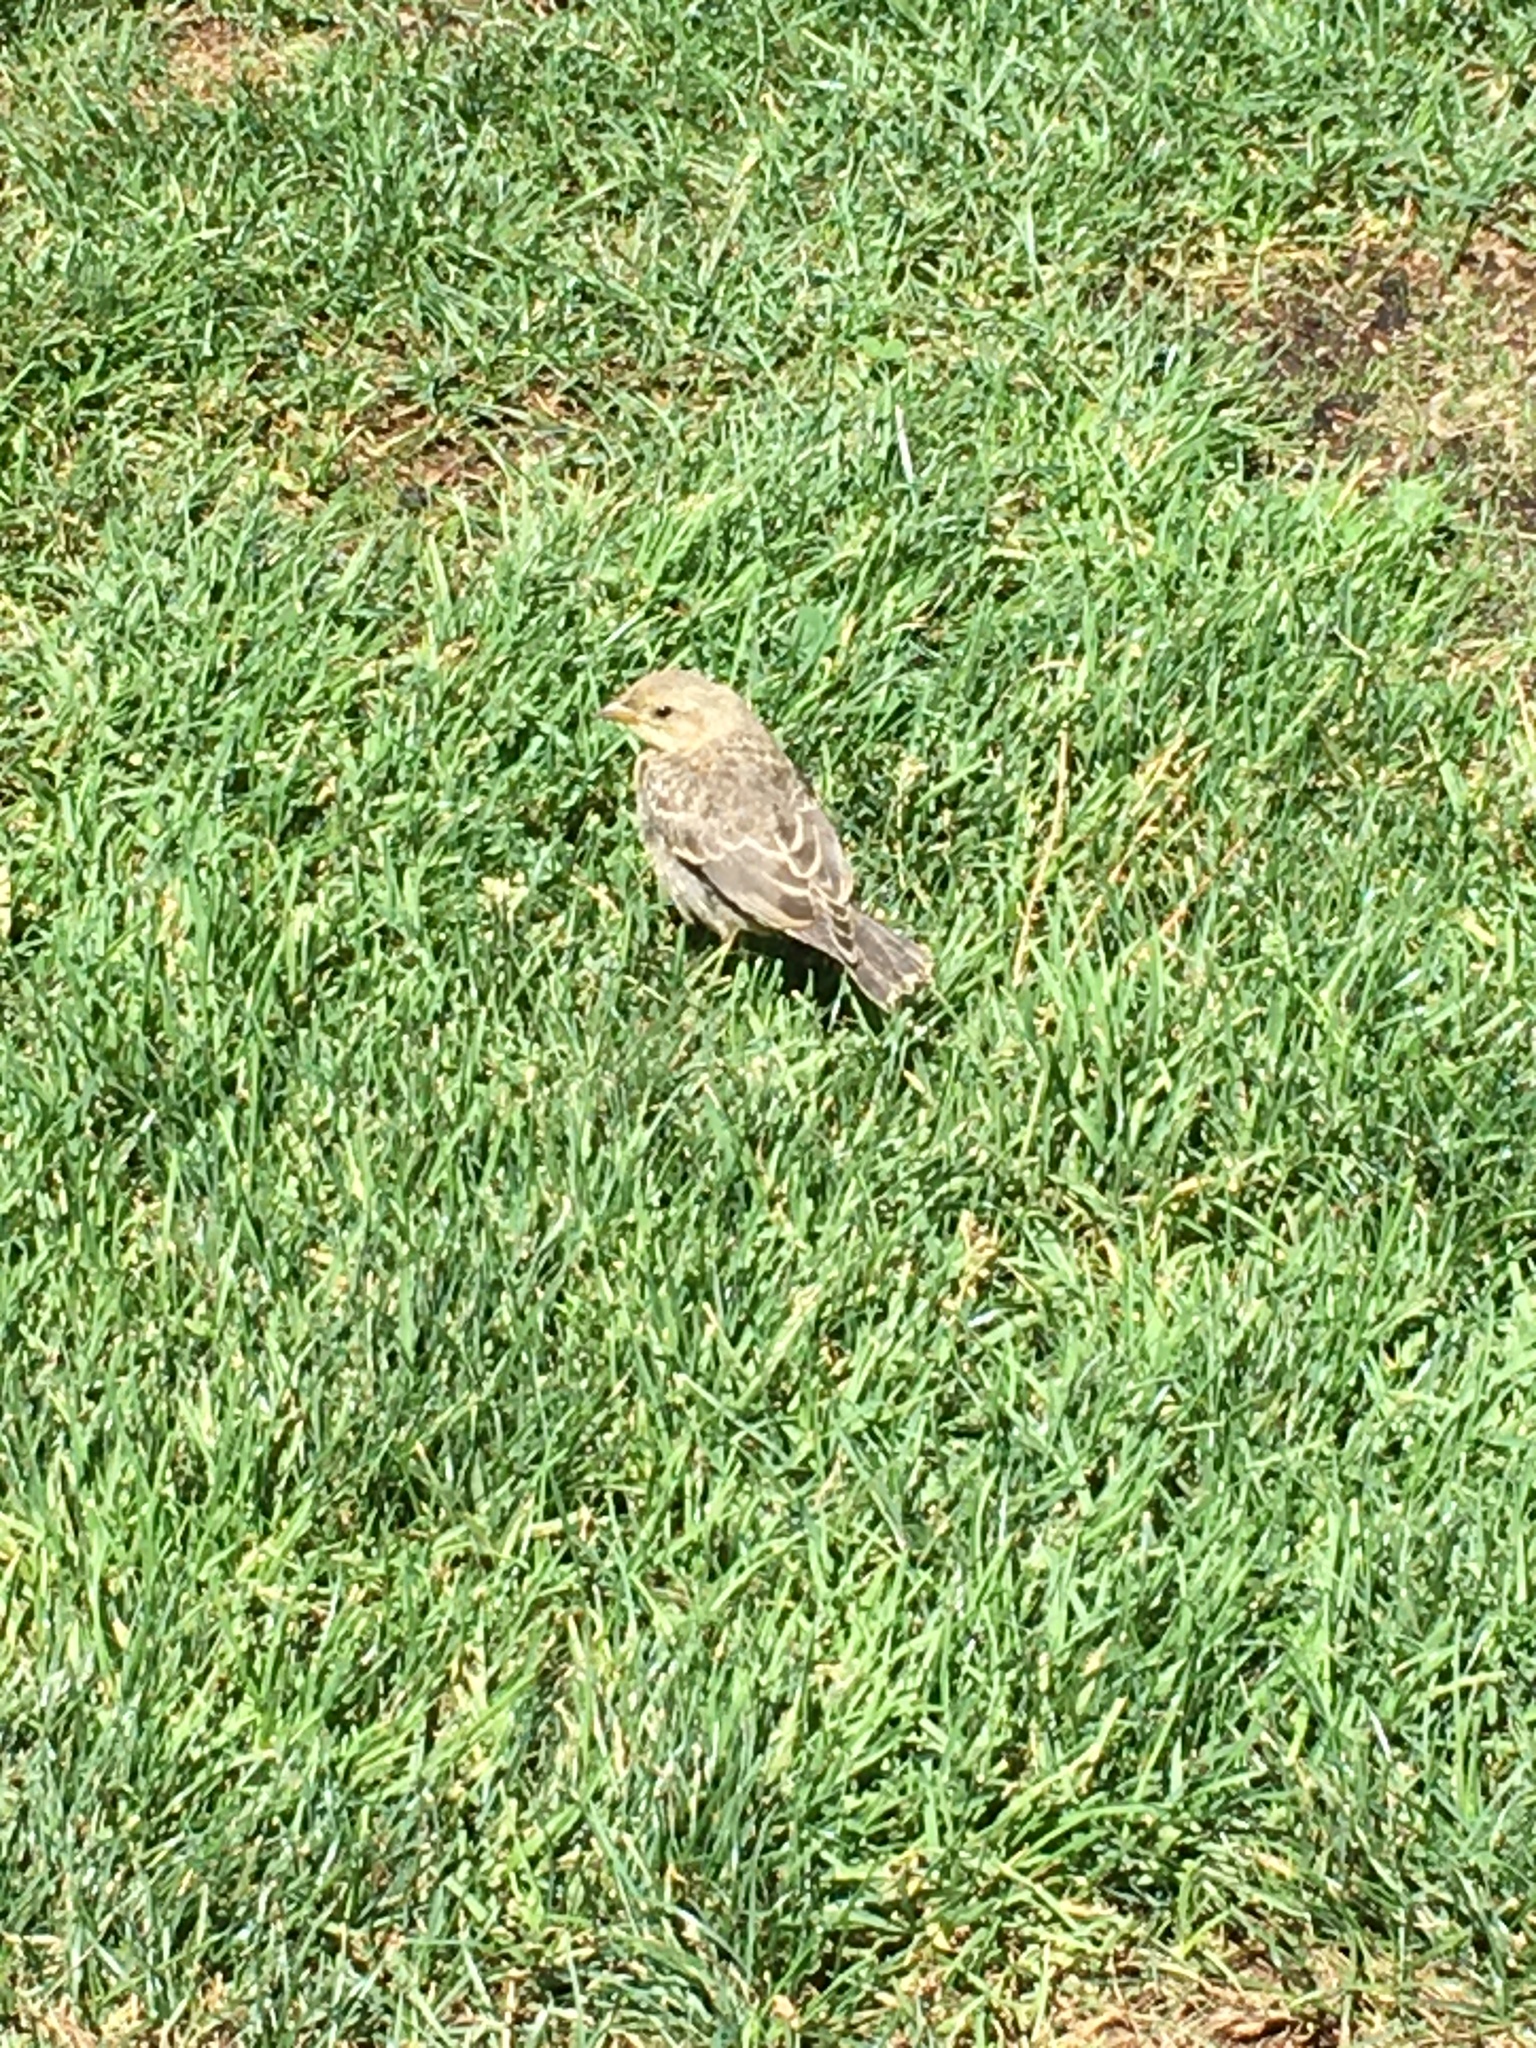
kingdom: Animalia
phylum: Chordata
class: Aves
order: Passeriformes
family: Icteridae
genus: Molothrus
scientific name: Molothrus ater
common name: Brown-headed cowbird
